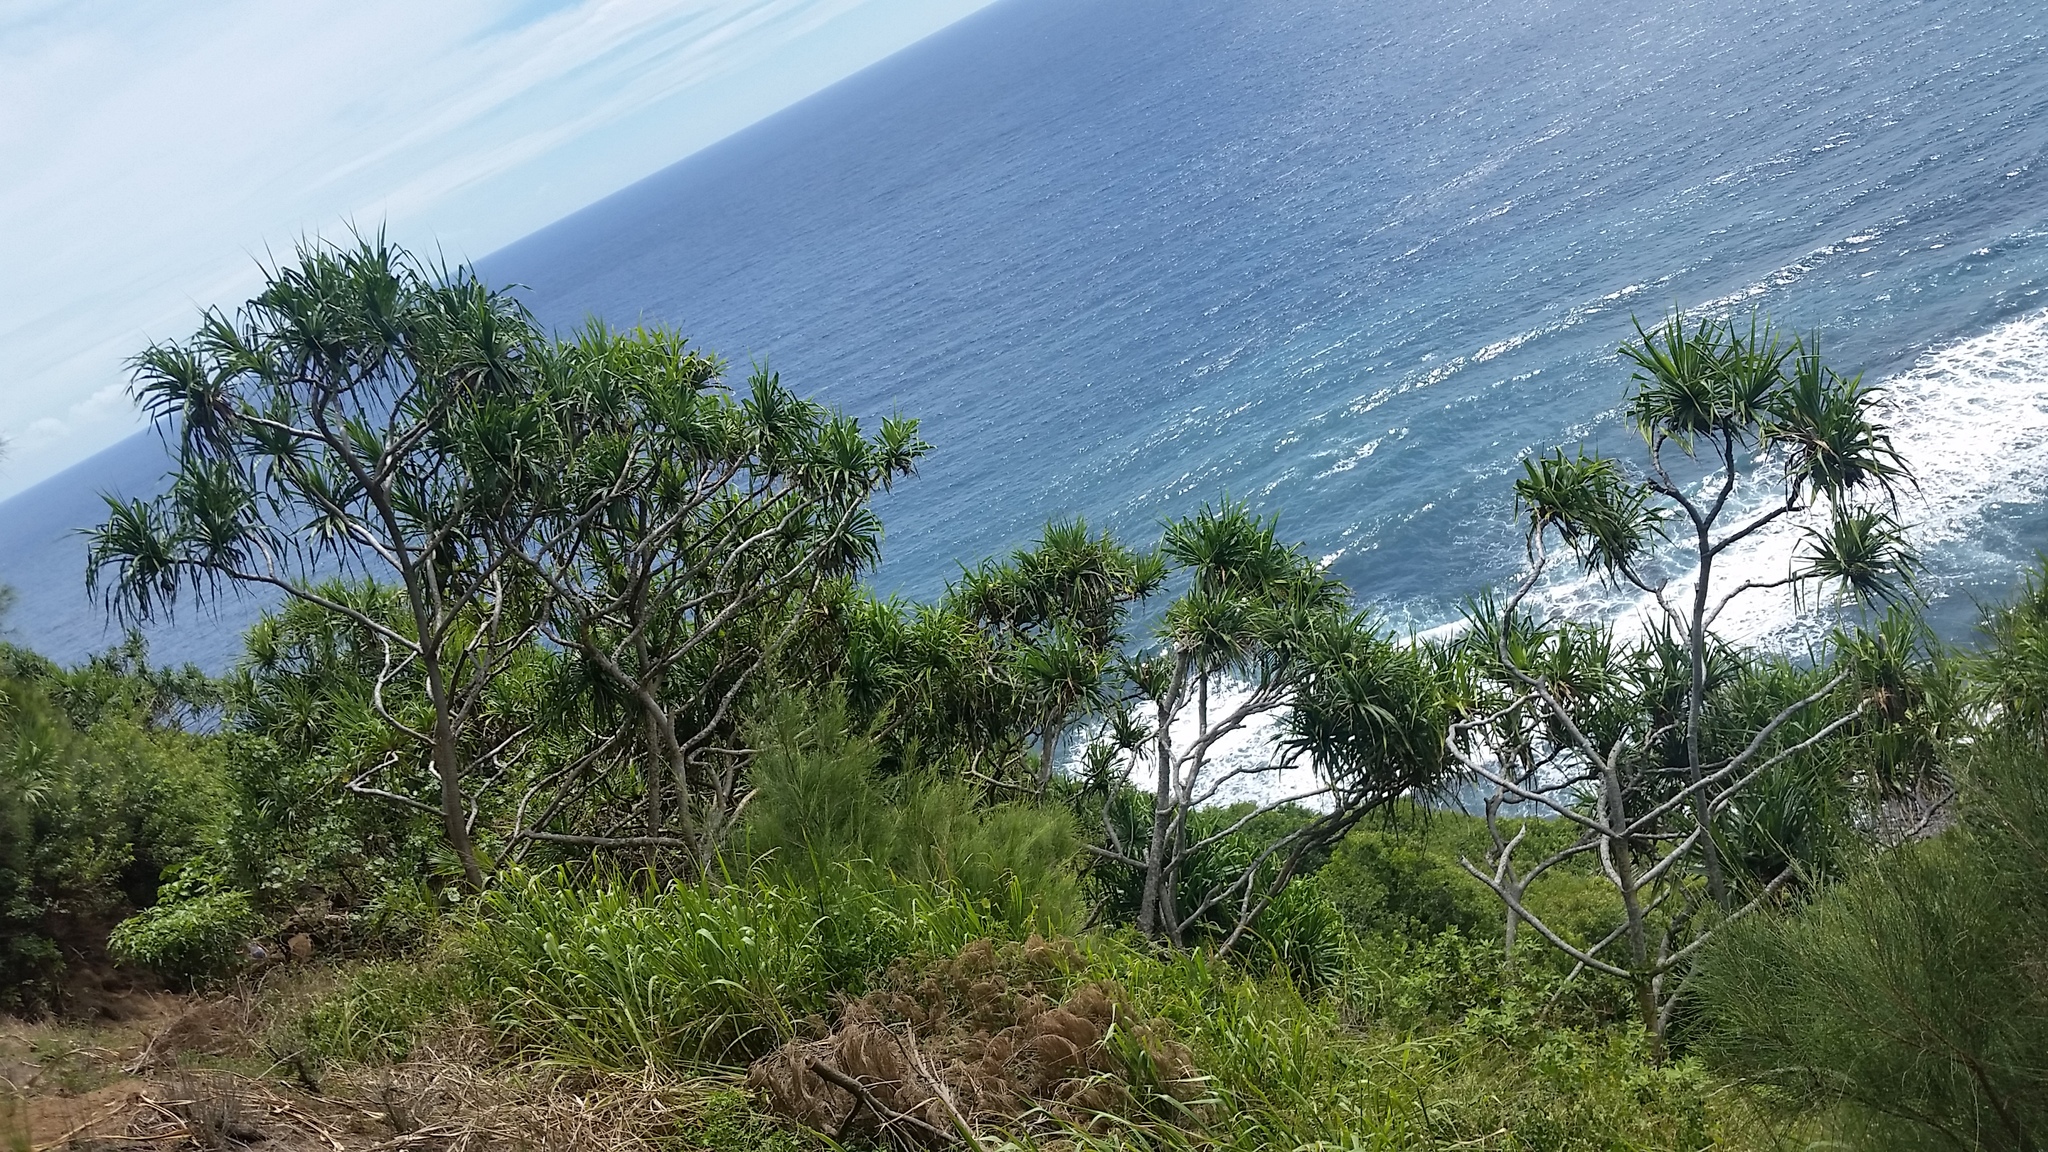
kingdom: Plantae
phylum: Tracheophyta
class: Liliopsida
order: Pandanales
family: Pandanaceae
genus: Pandanus
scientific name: Pandanus tectorius
